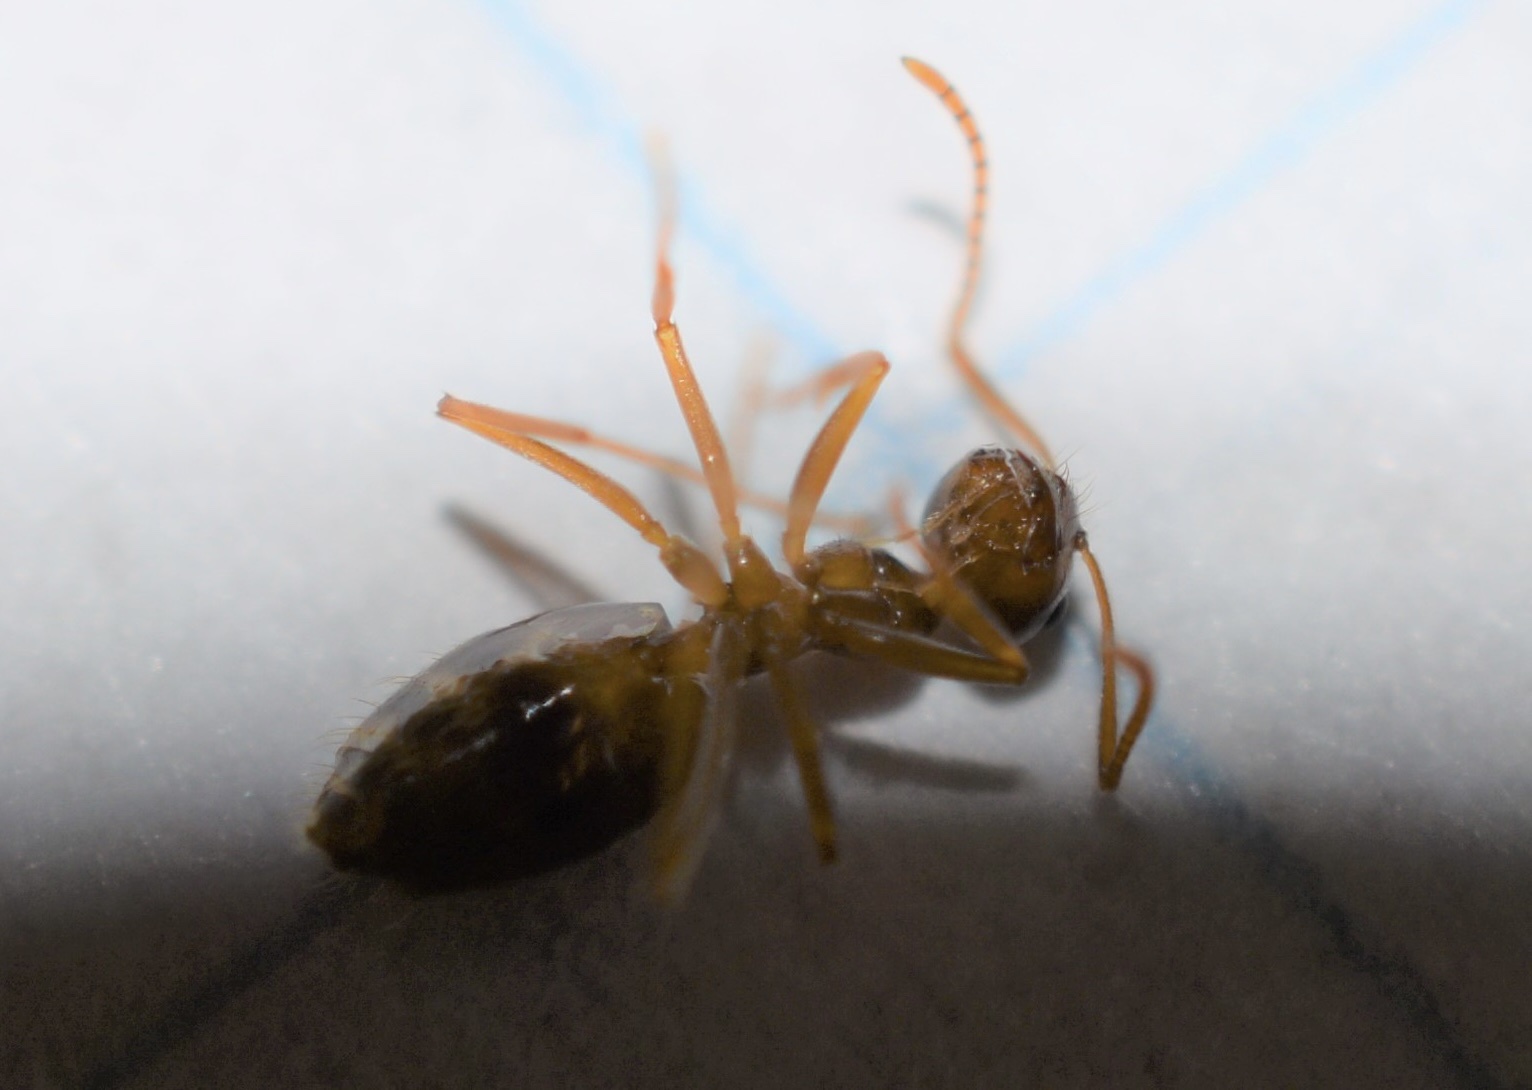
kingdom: Animalia
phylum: Arthropoda
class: Insecta
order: Hymenoptera
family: Formicidae
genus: Prenolepis
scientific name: Prenolepis imparis
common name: Small honey ant
